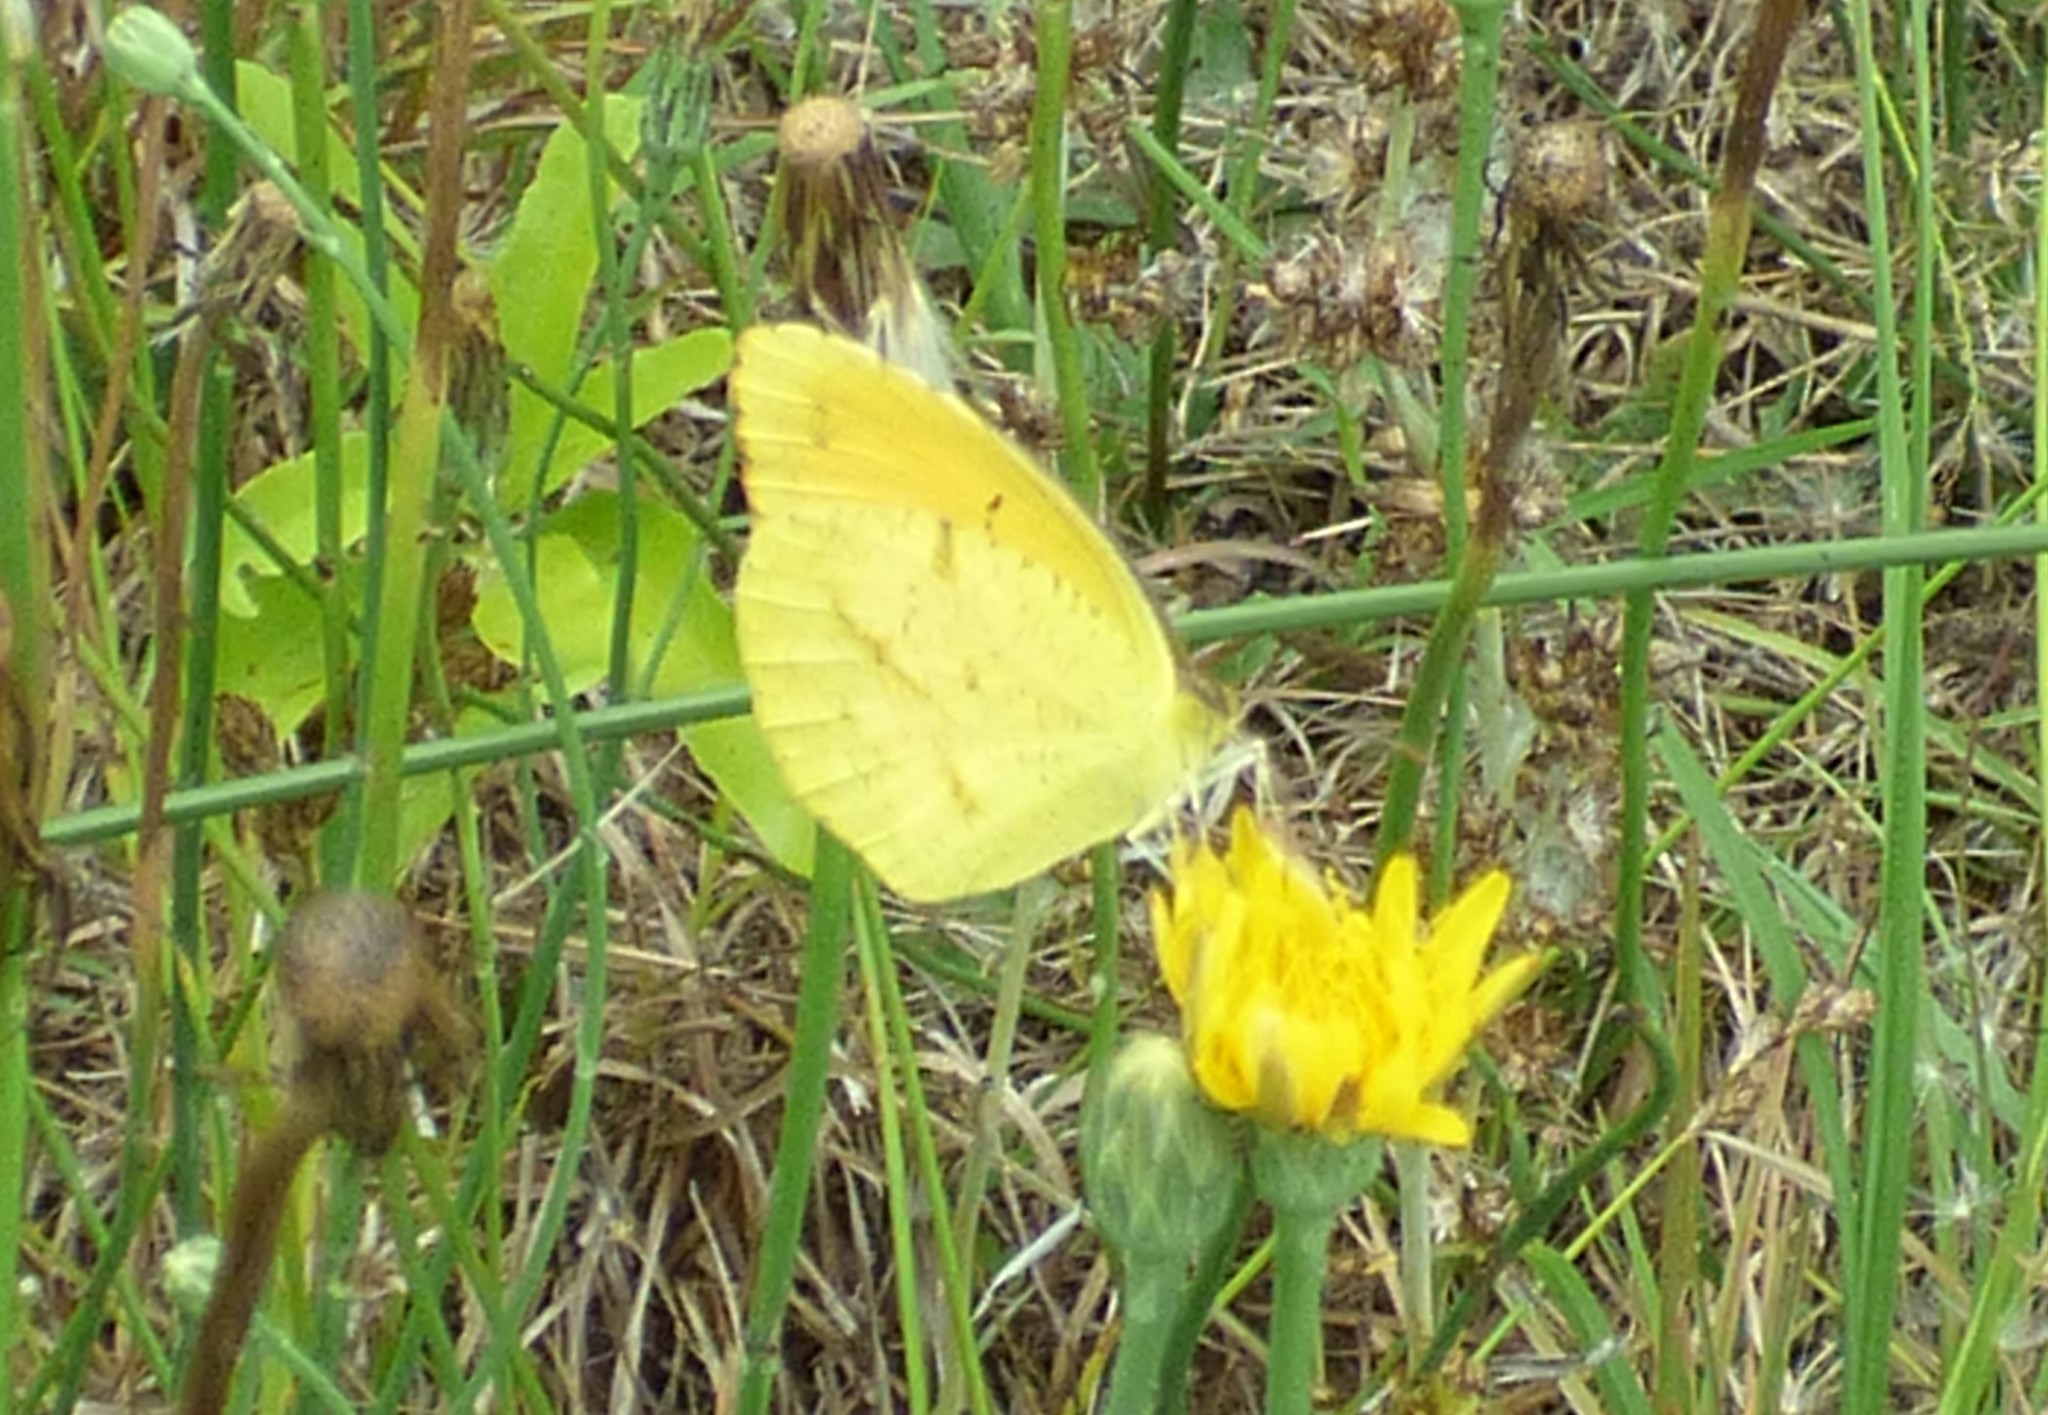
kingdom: Animalia
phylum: Arthropoda
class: Insecta
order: Lepidoptera
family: Pieridae
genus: Abaeis
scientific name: Abaeis nicippe
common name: Sleepy orange
